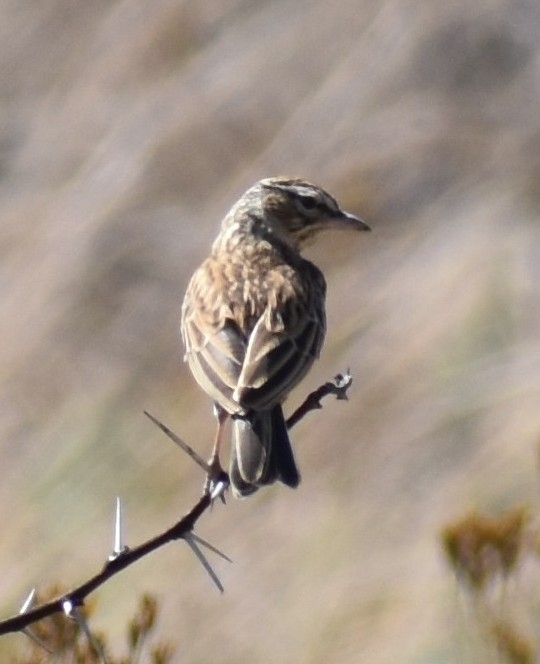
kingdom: Animalia
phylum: Chordata
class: Aves
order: Passeriformes
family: Alaudidae
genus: Calendulauda
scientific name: Calendulauda sabota
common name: Sabota lark
